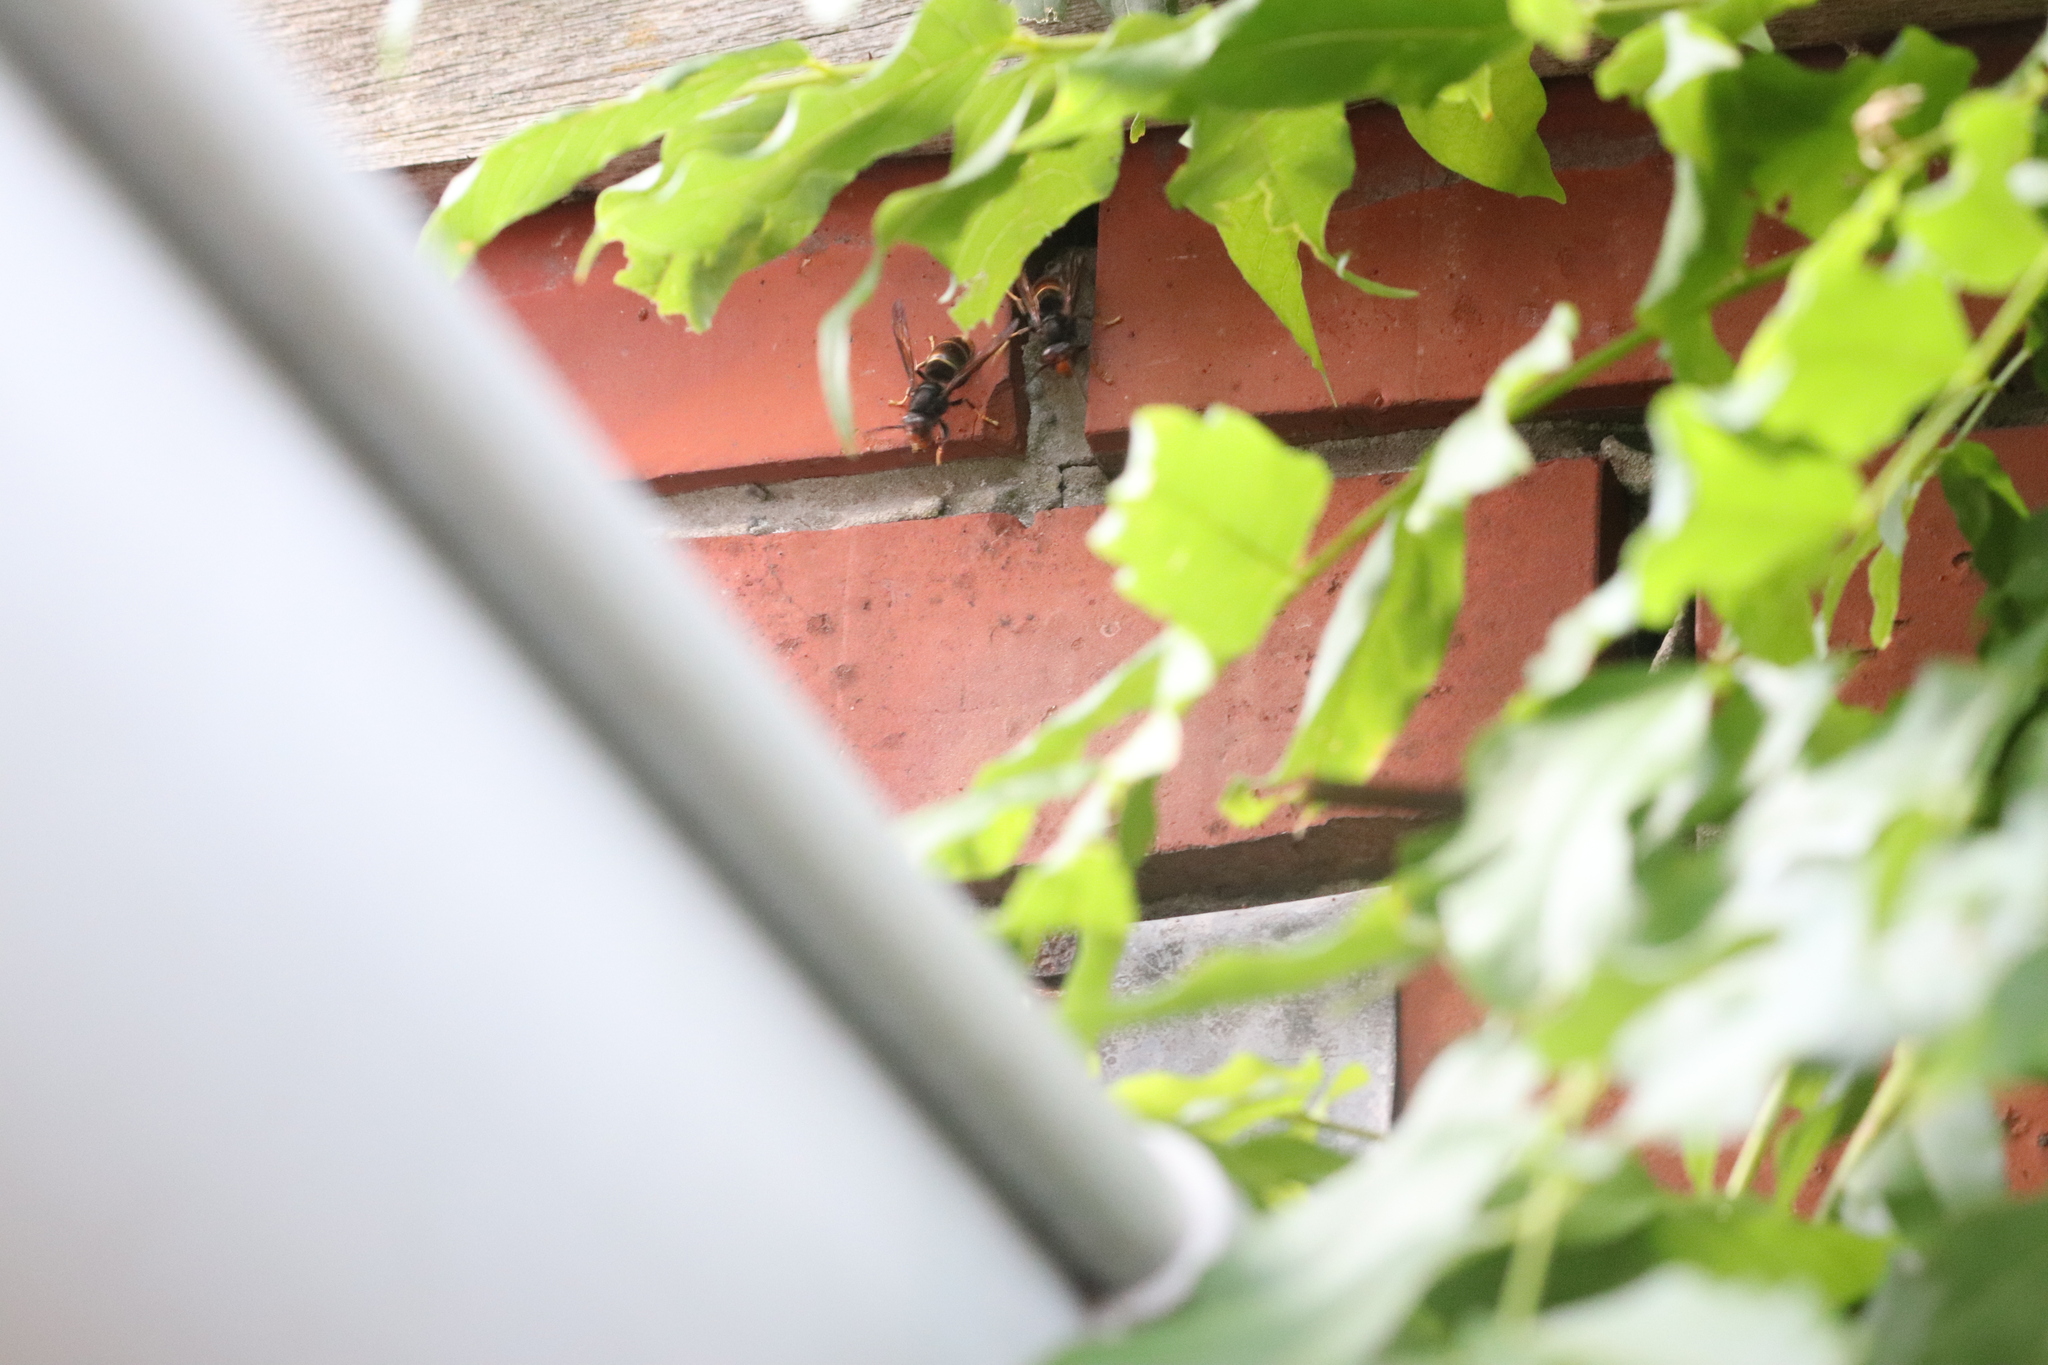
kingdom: Animalia
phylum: Arthropoda
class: Insecta
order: Hymenoptera
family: Vespidae
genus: Vespa
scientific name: Vespa velutina
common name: Asian hornet
